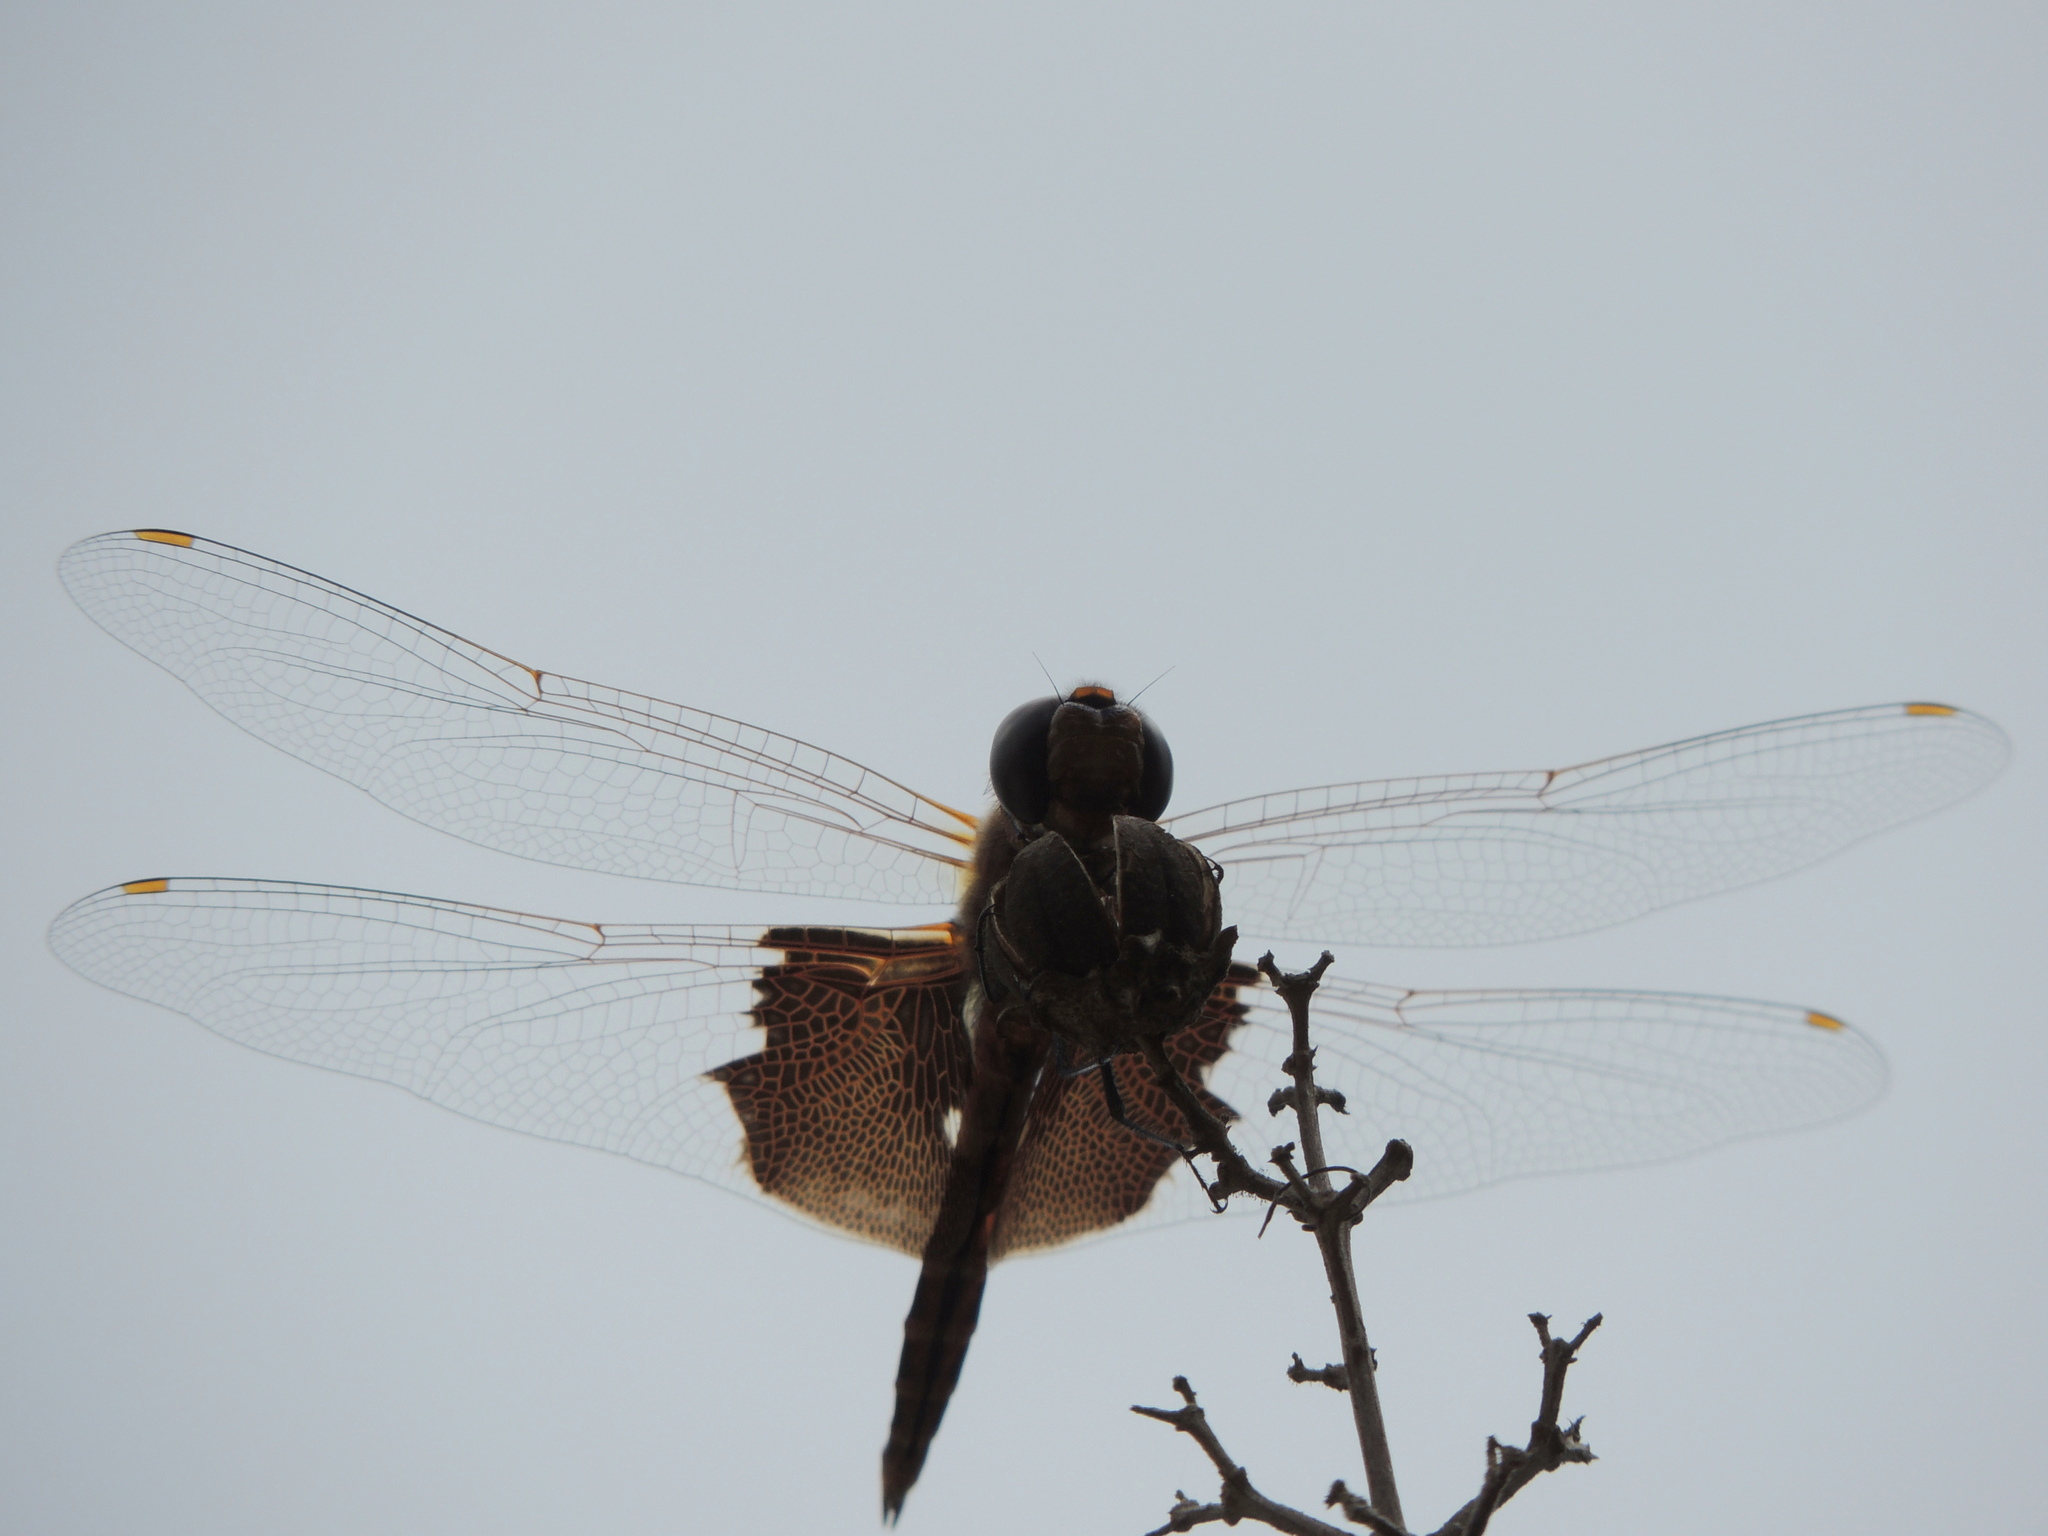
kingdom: Animalia
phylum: Arthropoda
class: Insecta
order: Odonata
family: Libellulidae
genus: Tramea
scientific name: Tramea carolina
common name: Carolina saddlebags
